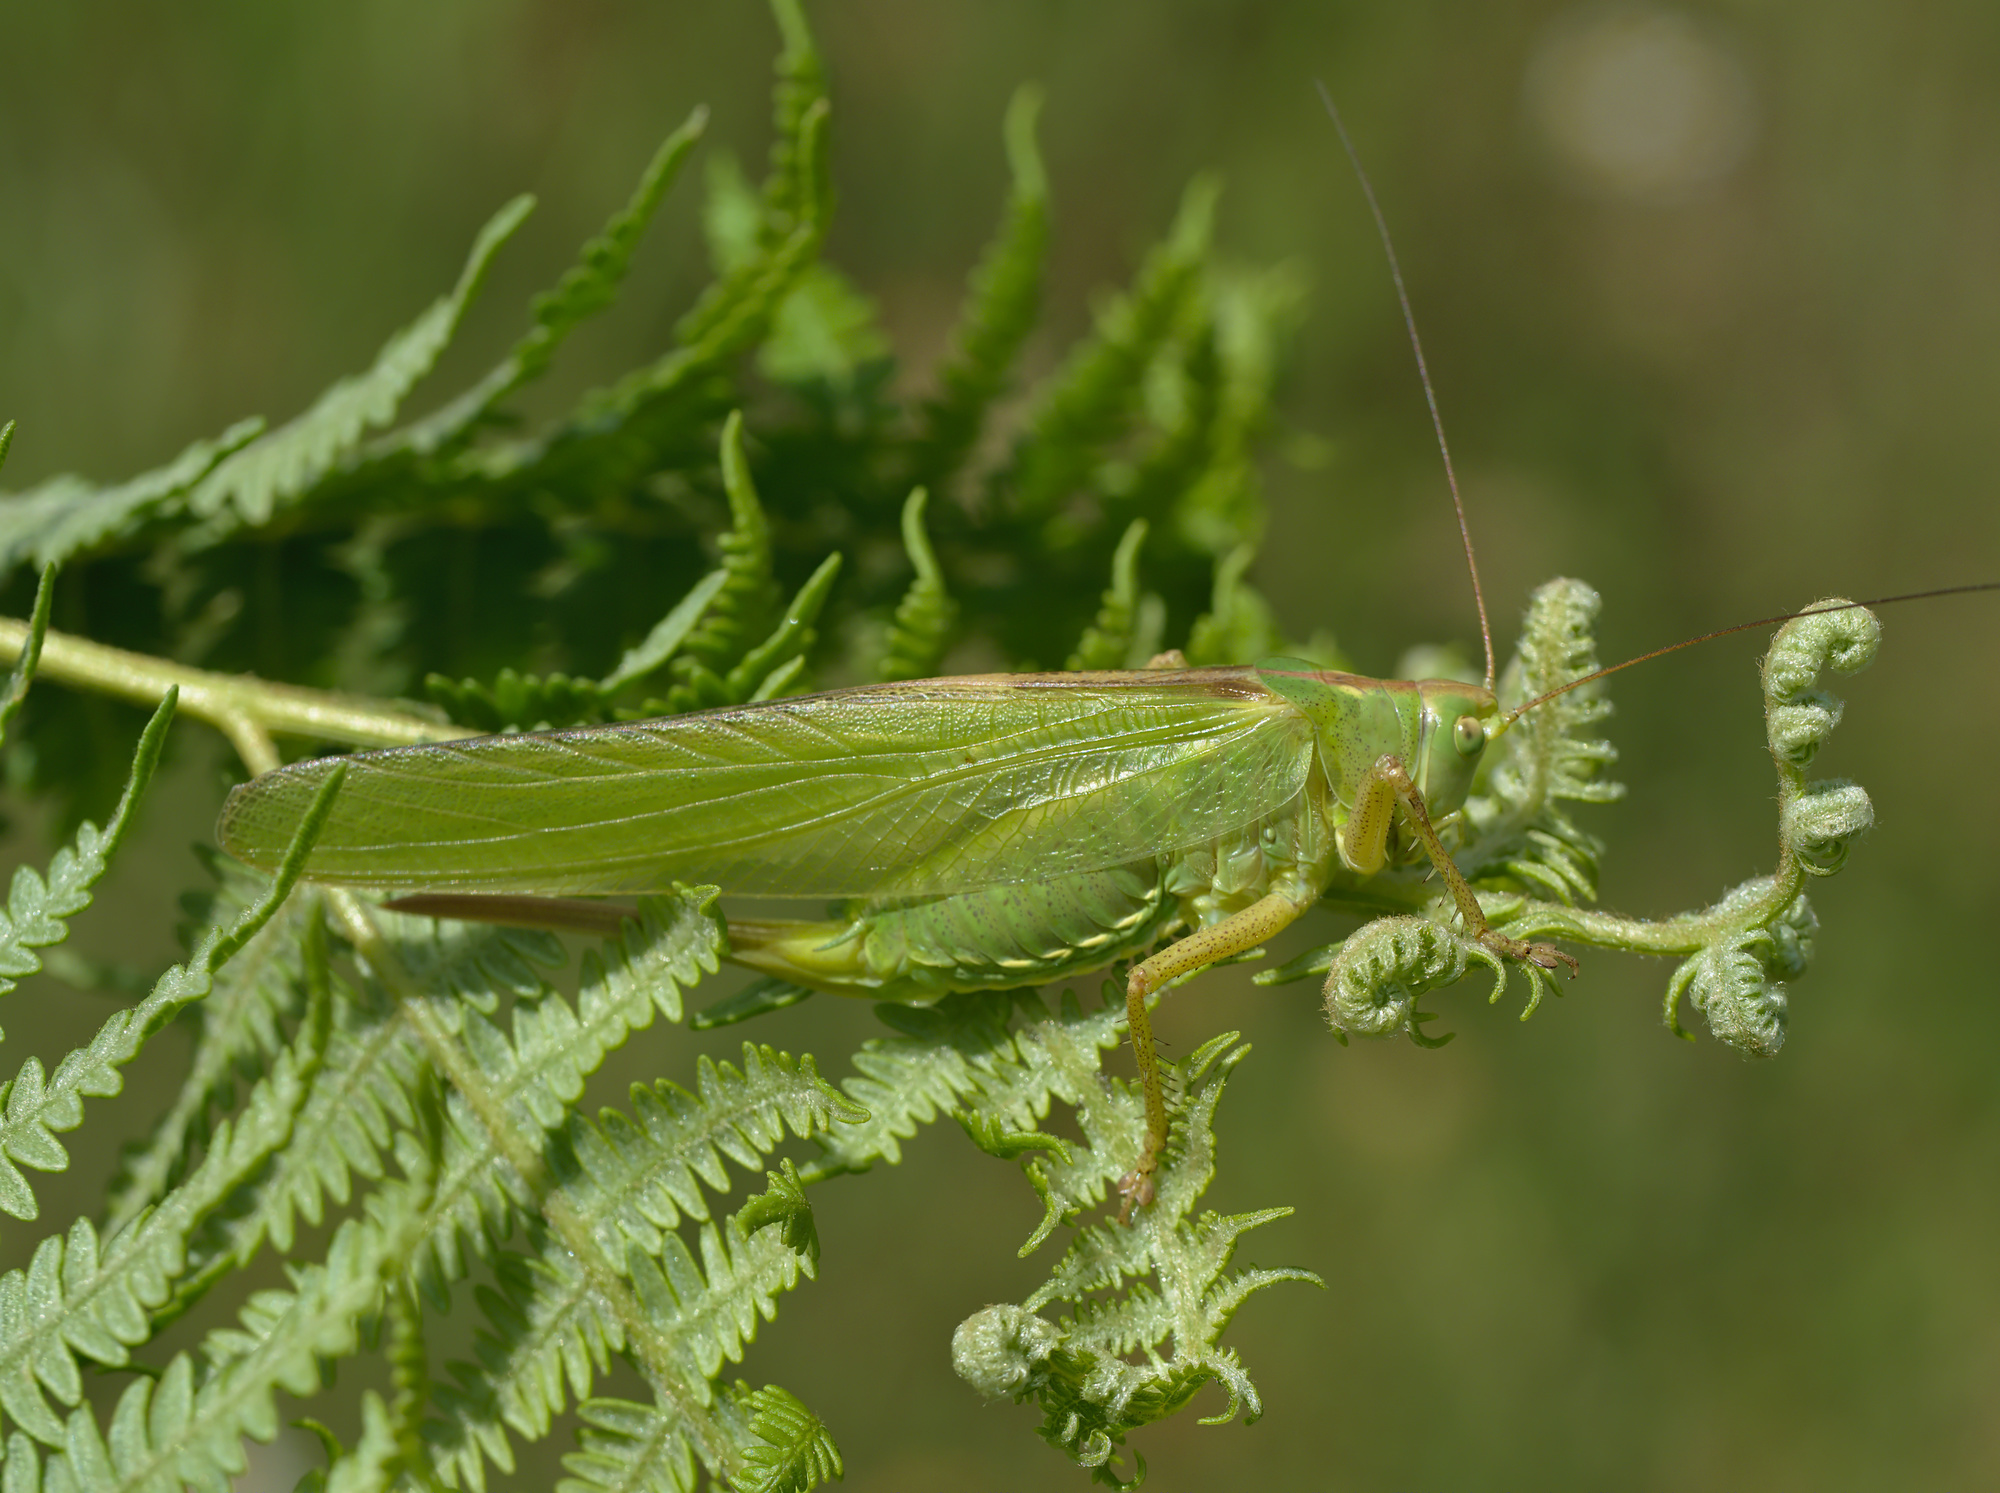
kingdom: Animalia
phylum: Arthropoda
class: Insecta
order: Orthoptera
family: Tettigoniidae
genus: Tettigonia
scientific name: Tettigonia viridissima
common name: Great green bush-cricket
